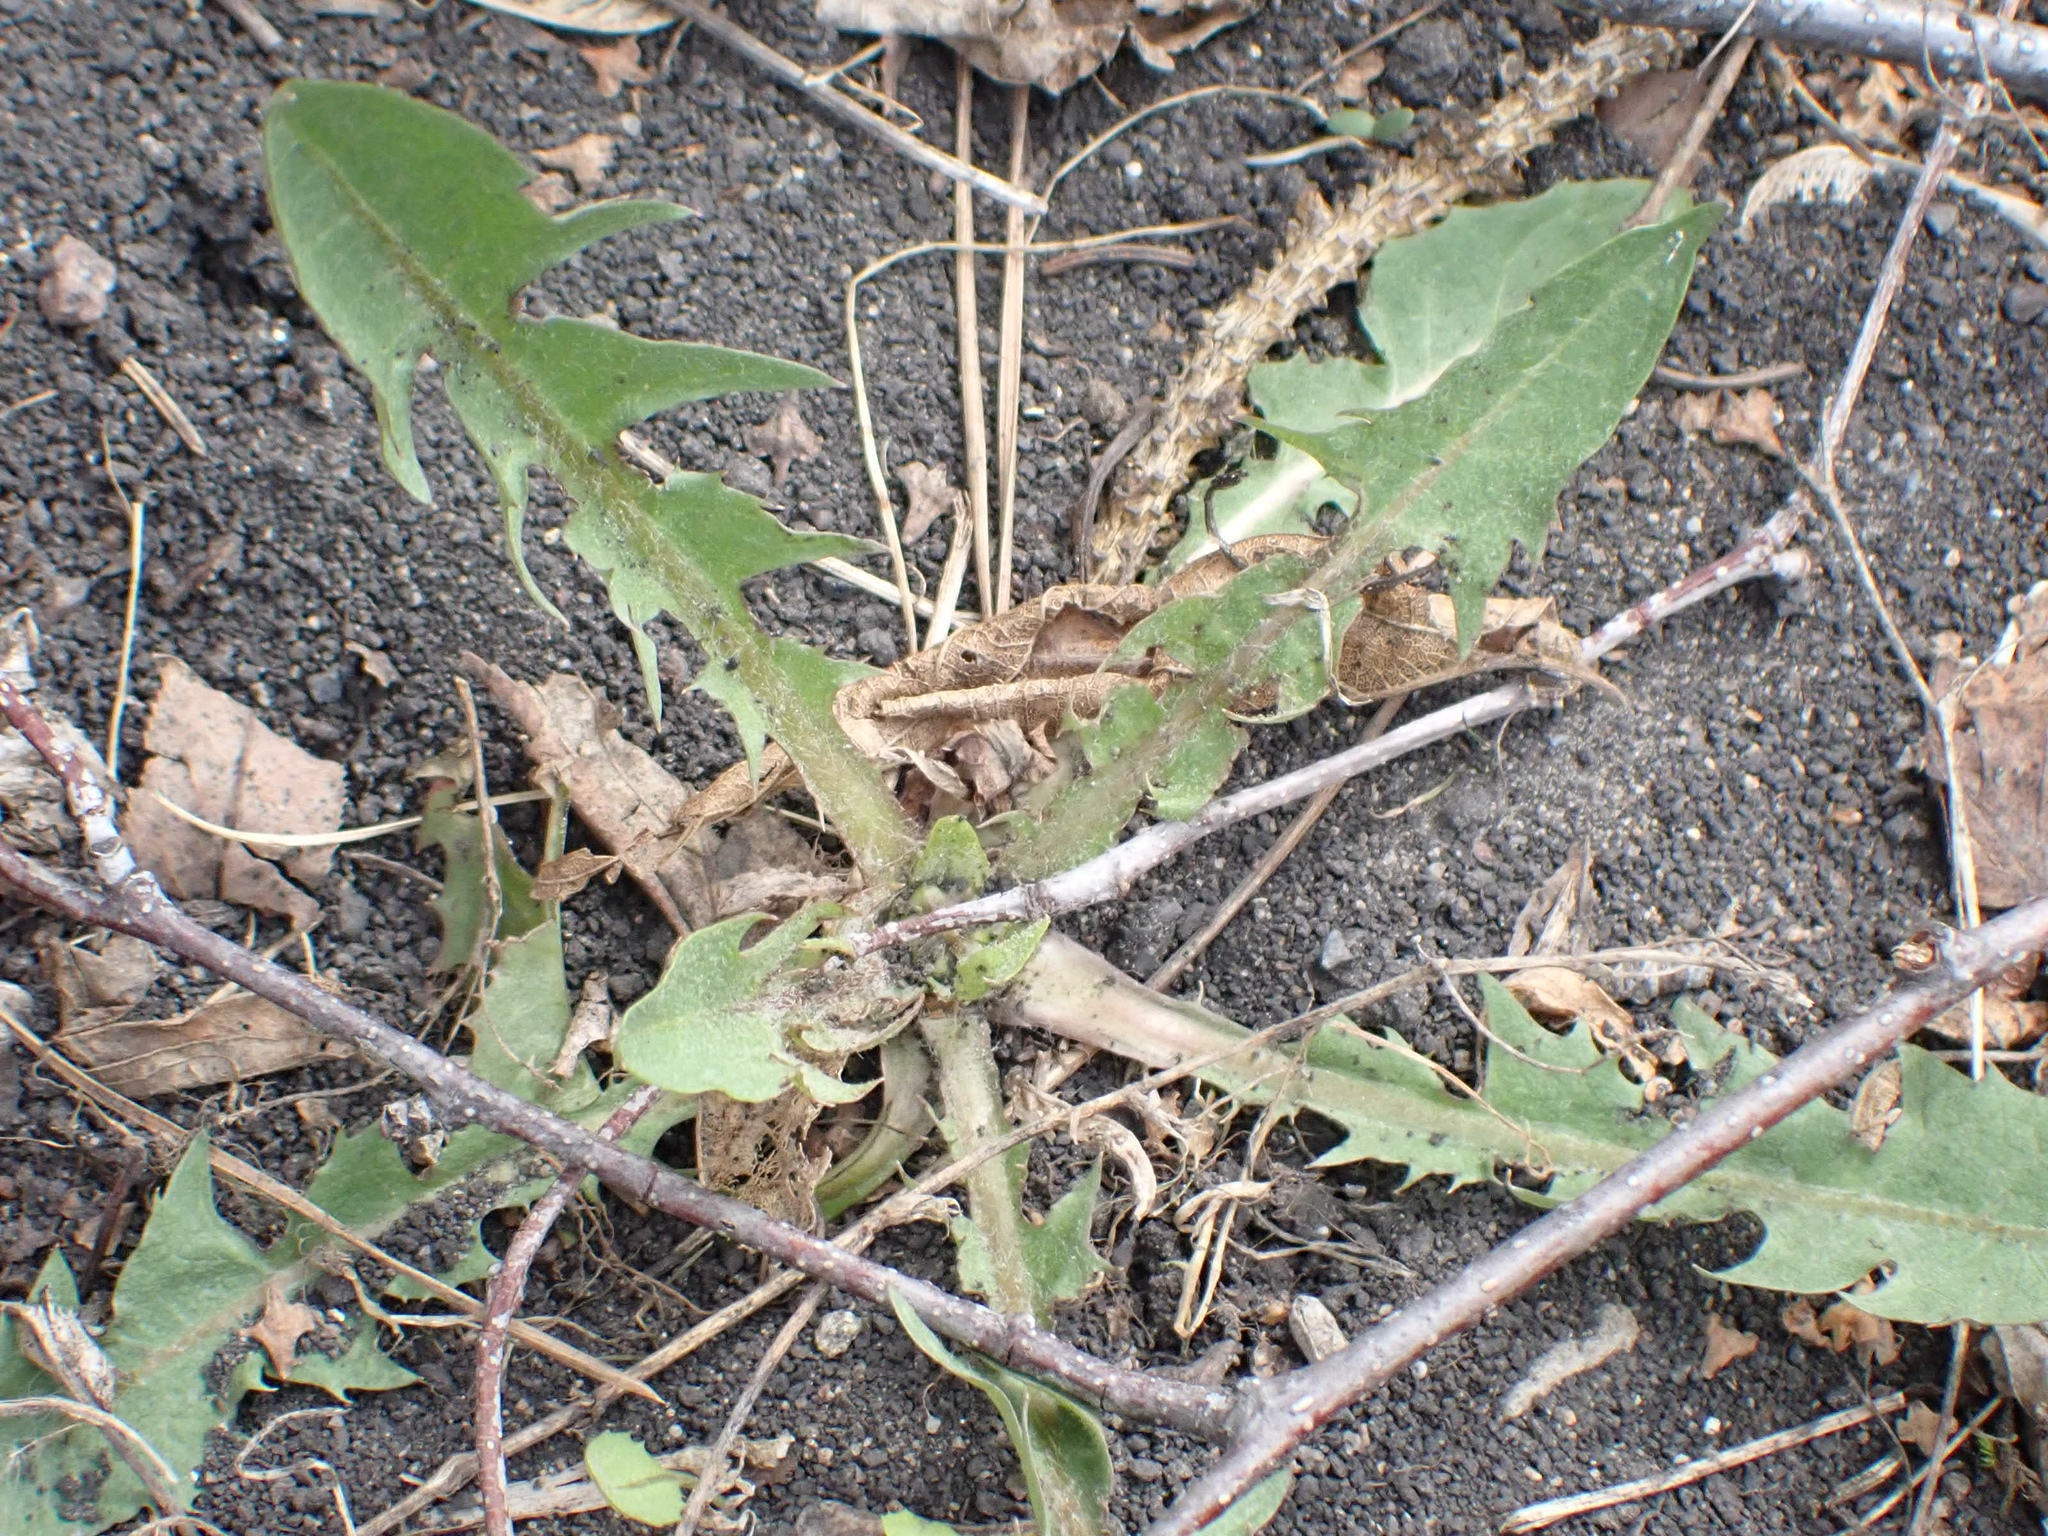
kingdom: Plantae
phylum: Tracheophyta
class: Magnoliopsida
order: Asterales
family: Asteraceae
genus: Taraxacum
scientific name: Taraxacum officinale
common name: Common dandelion
